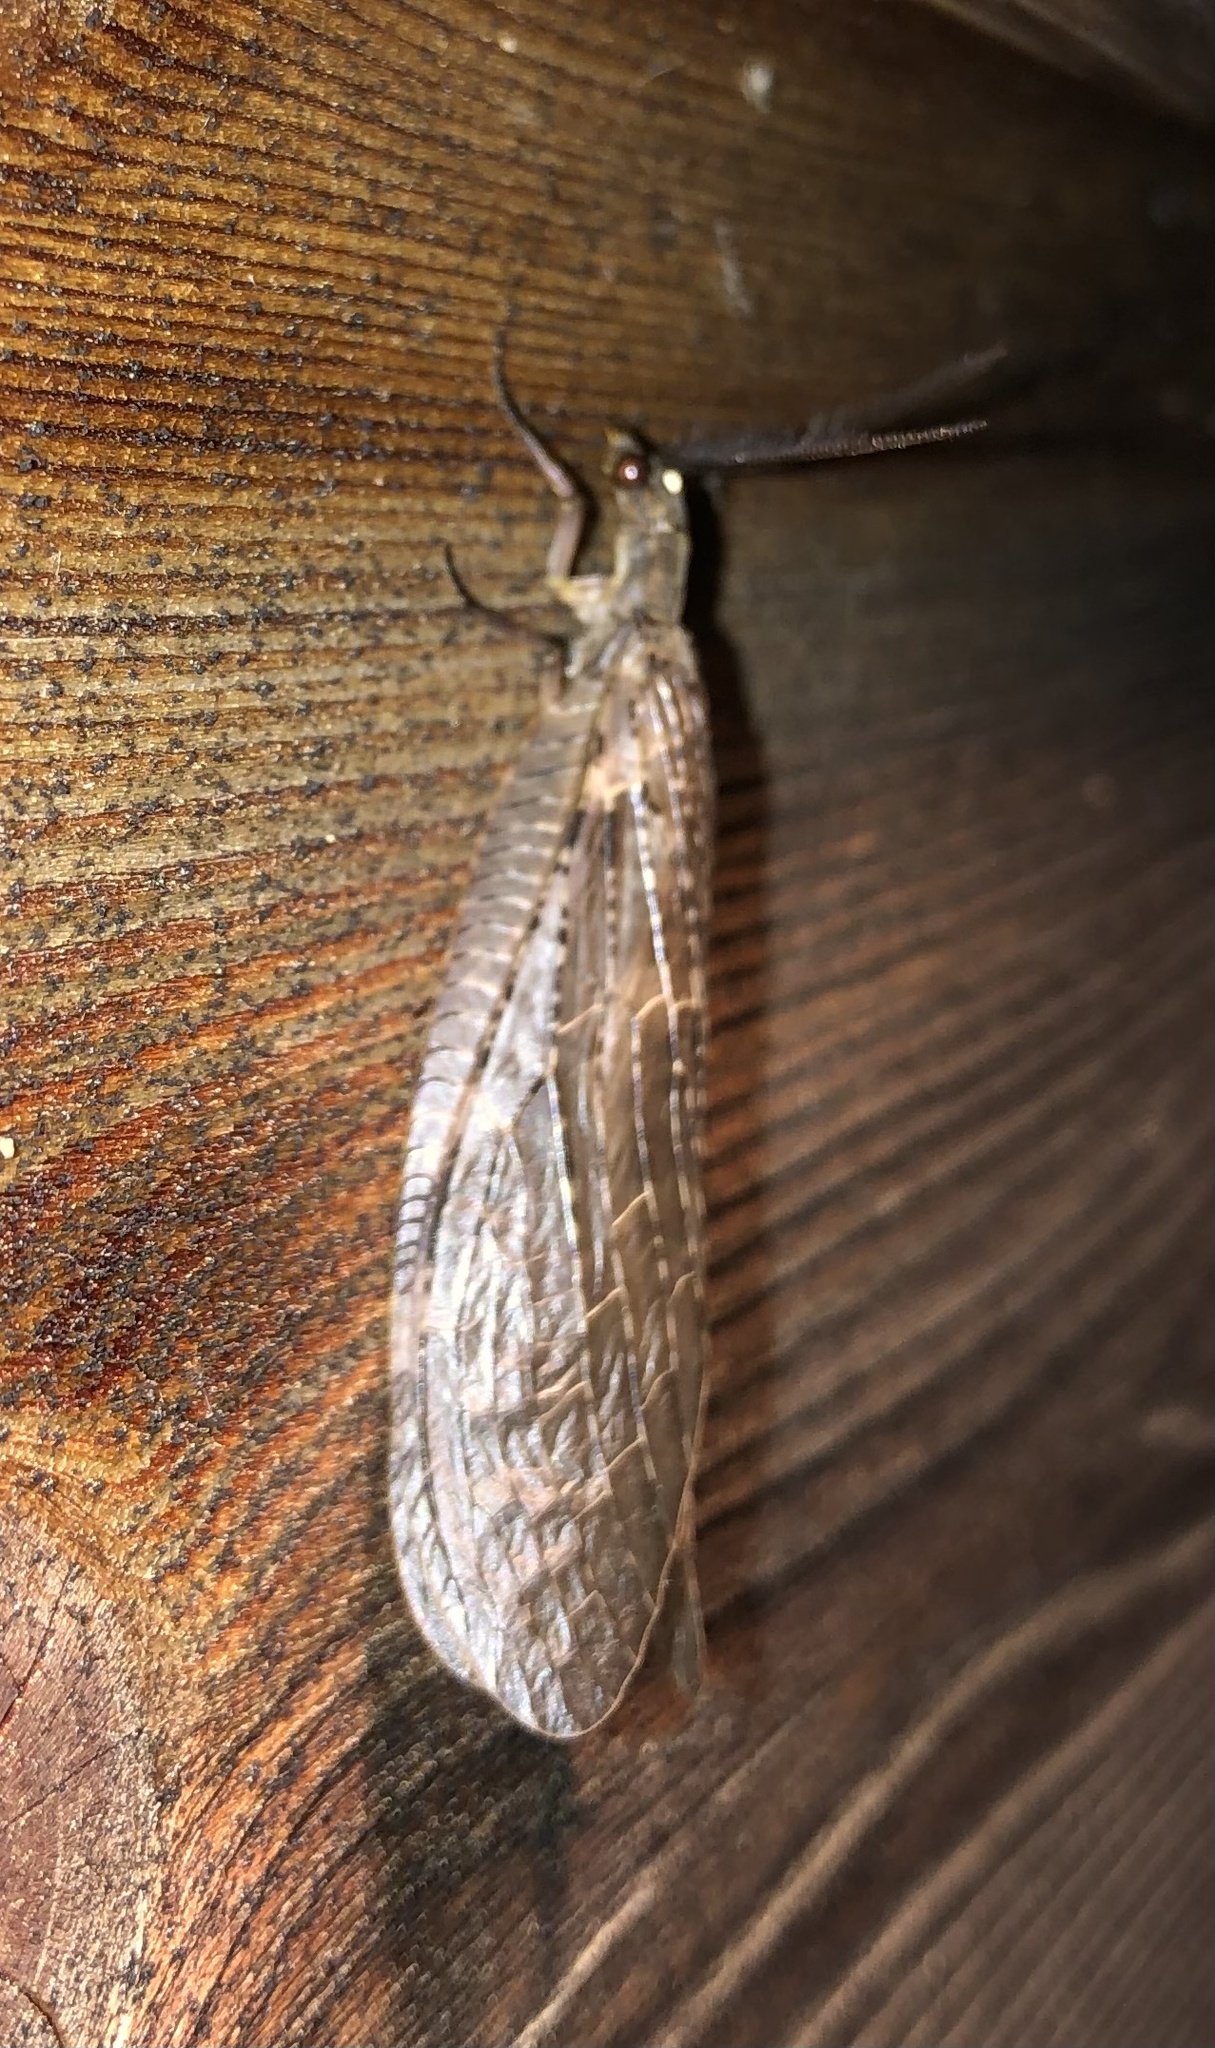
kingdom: Animalia
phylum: Arthropoda
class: Insecta
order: Megaloptera
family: Corydalidae
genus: Chauliodes
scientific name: Chauliodes pectinicornis
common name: Summer fishfly
